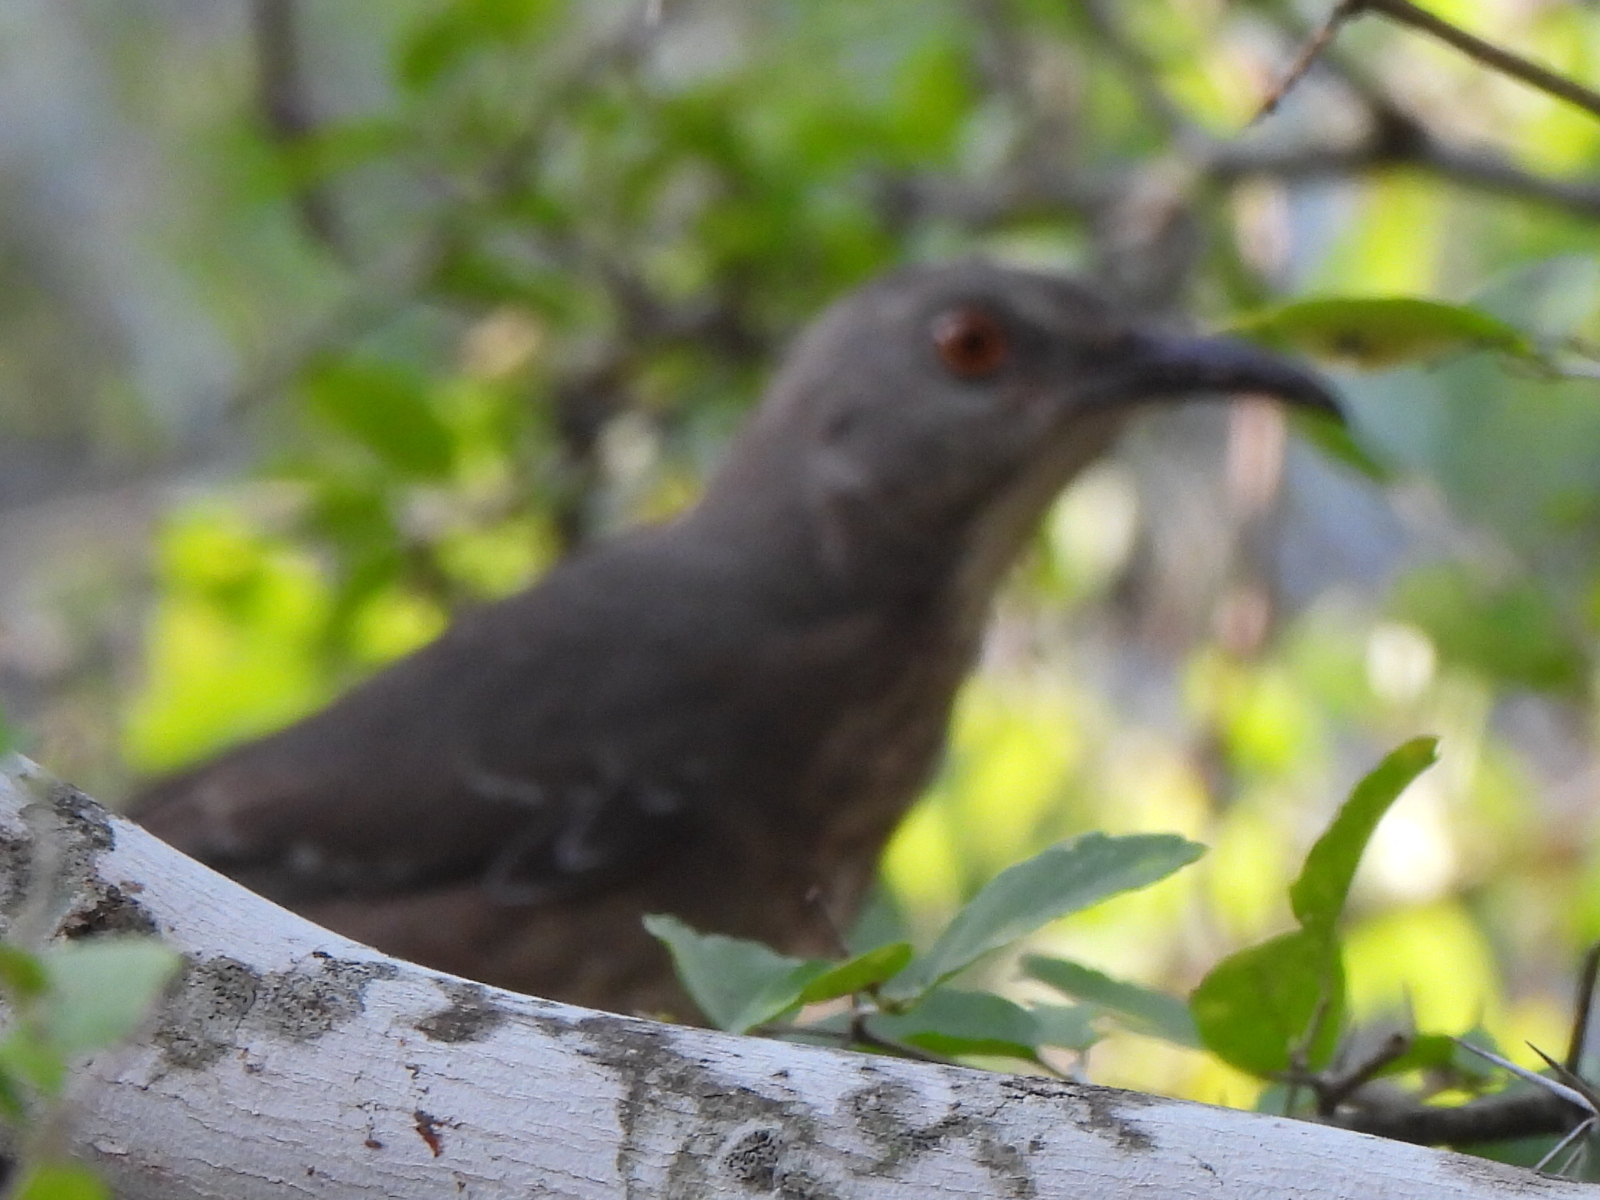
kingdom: Animalia
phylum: Chordata
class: Aves
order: Passeriformes
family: Mimidae
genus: Toxostoma
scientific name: Toxostoma curvirostre
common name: Curve-billed thrasher
